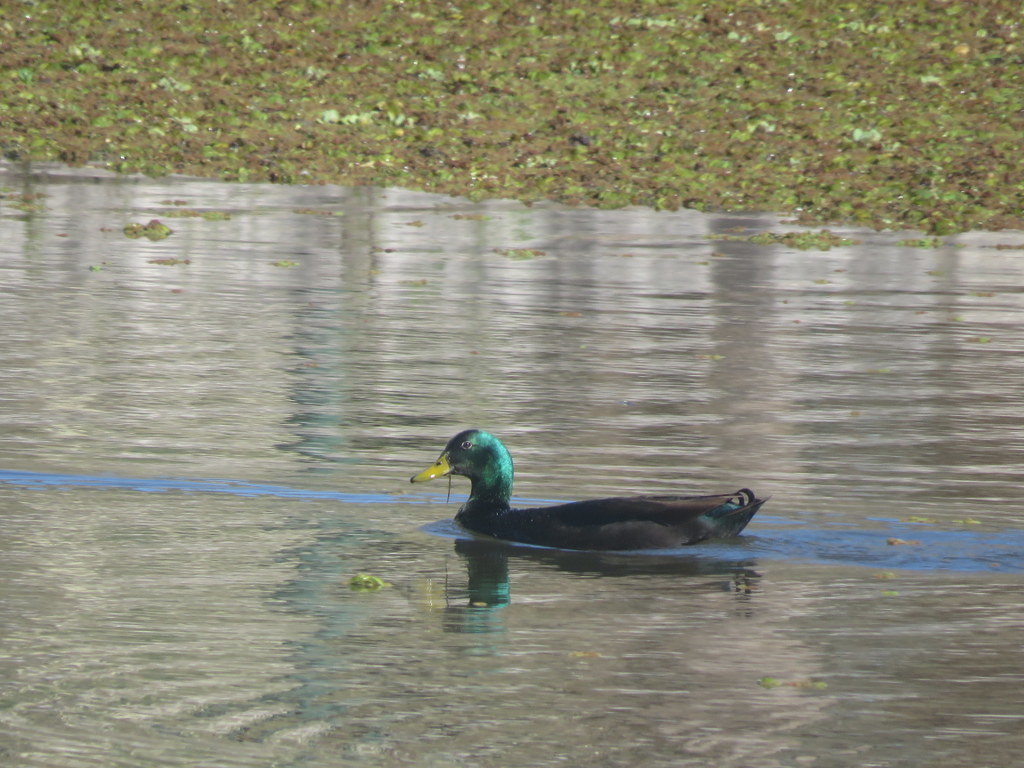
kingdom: Animalia
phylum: Chordata
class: Aves
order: Anseriformes
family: Anatidae
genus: Anas
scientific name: Anas platyrhynchos
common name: Mallard
